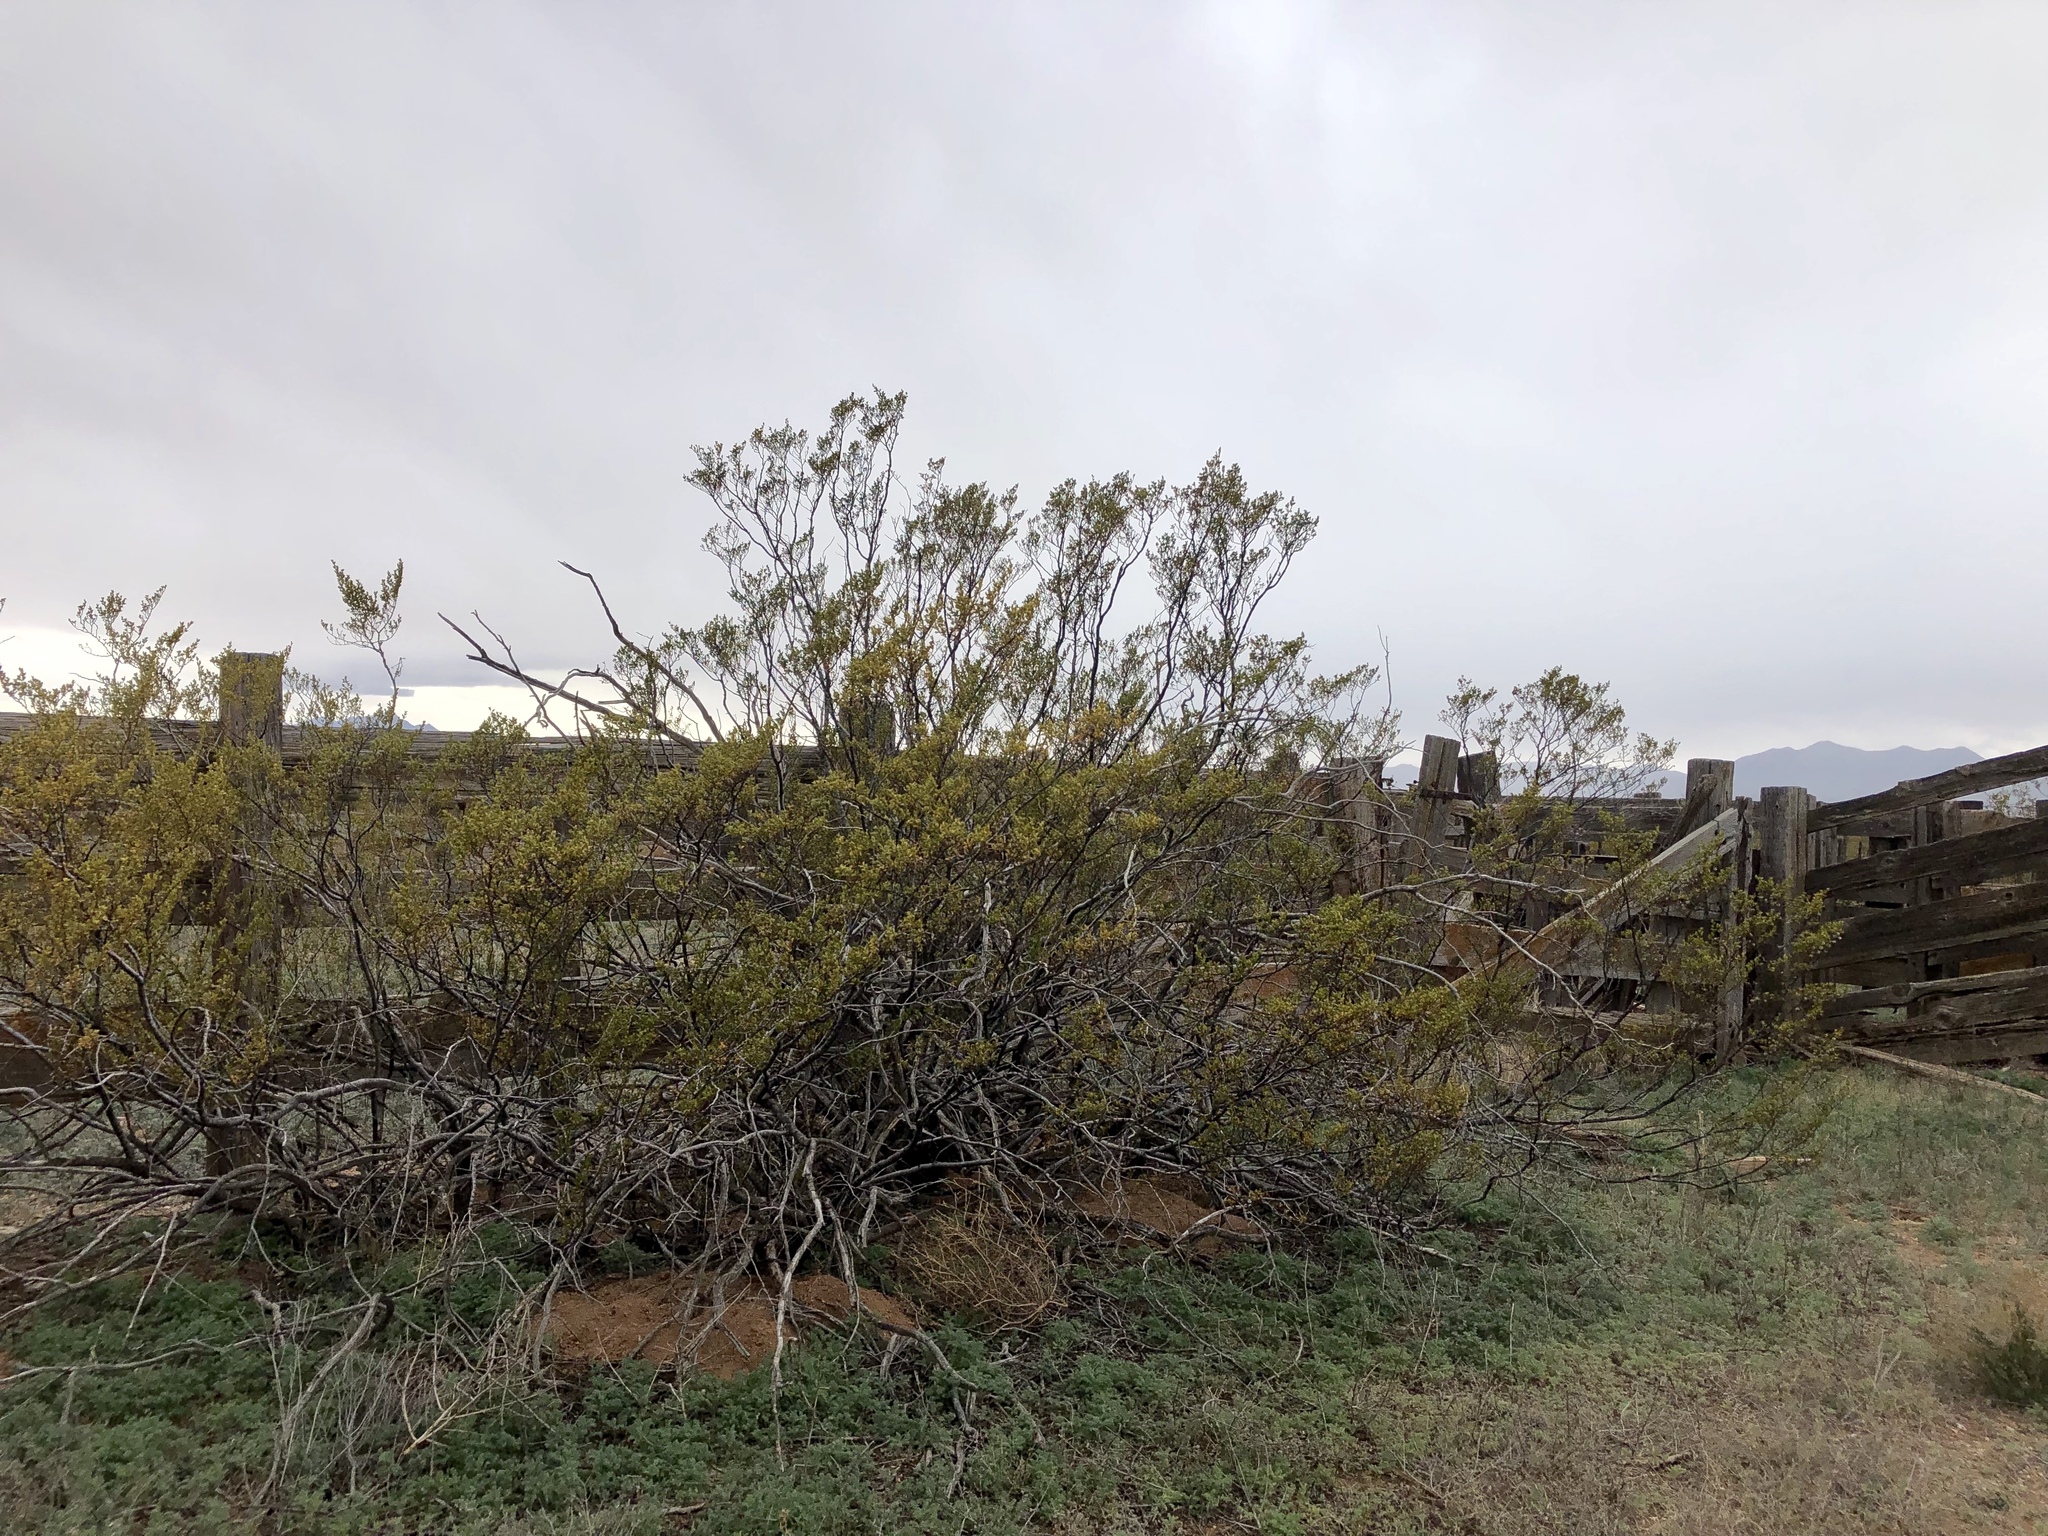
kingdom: Plantae
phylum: Tracheophyta
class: Magnoliopsida
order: Zygophyllales
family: Zygophyllaceae
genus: Larrea
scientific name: Larrea tridentata
